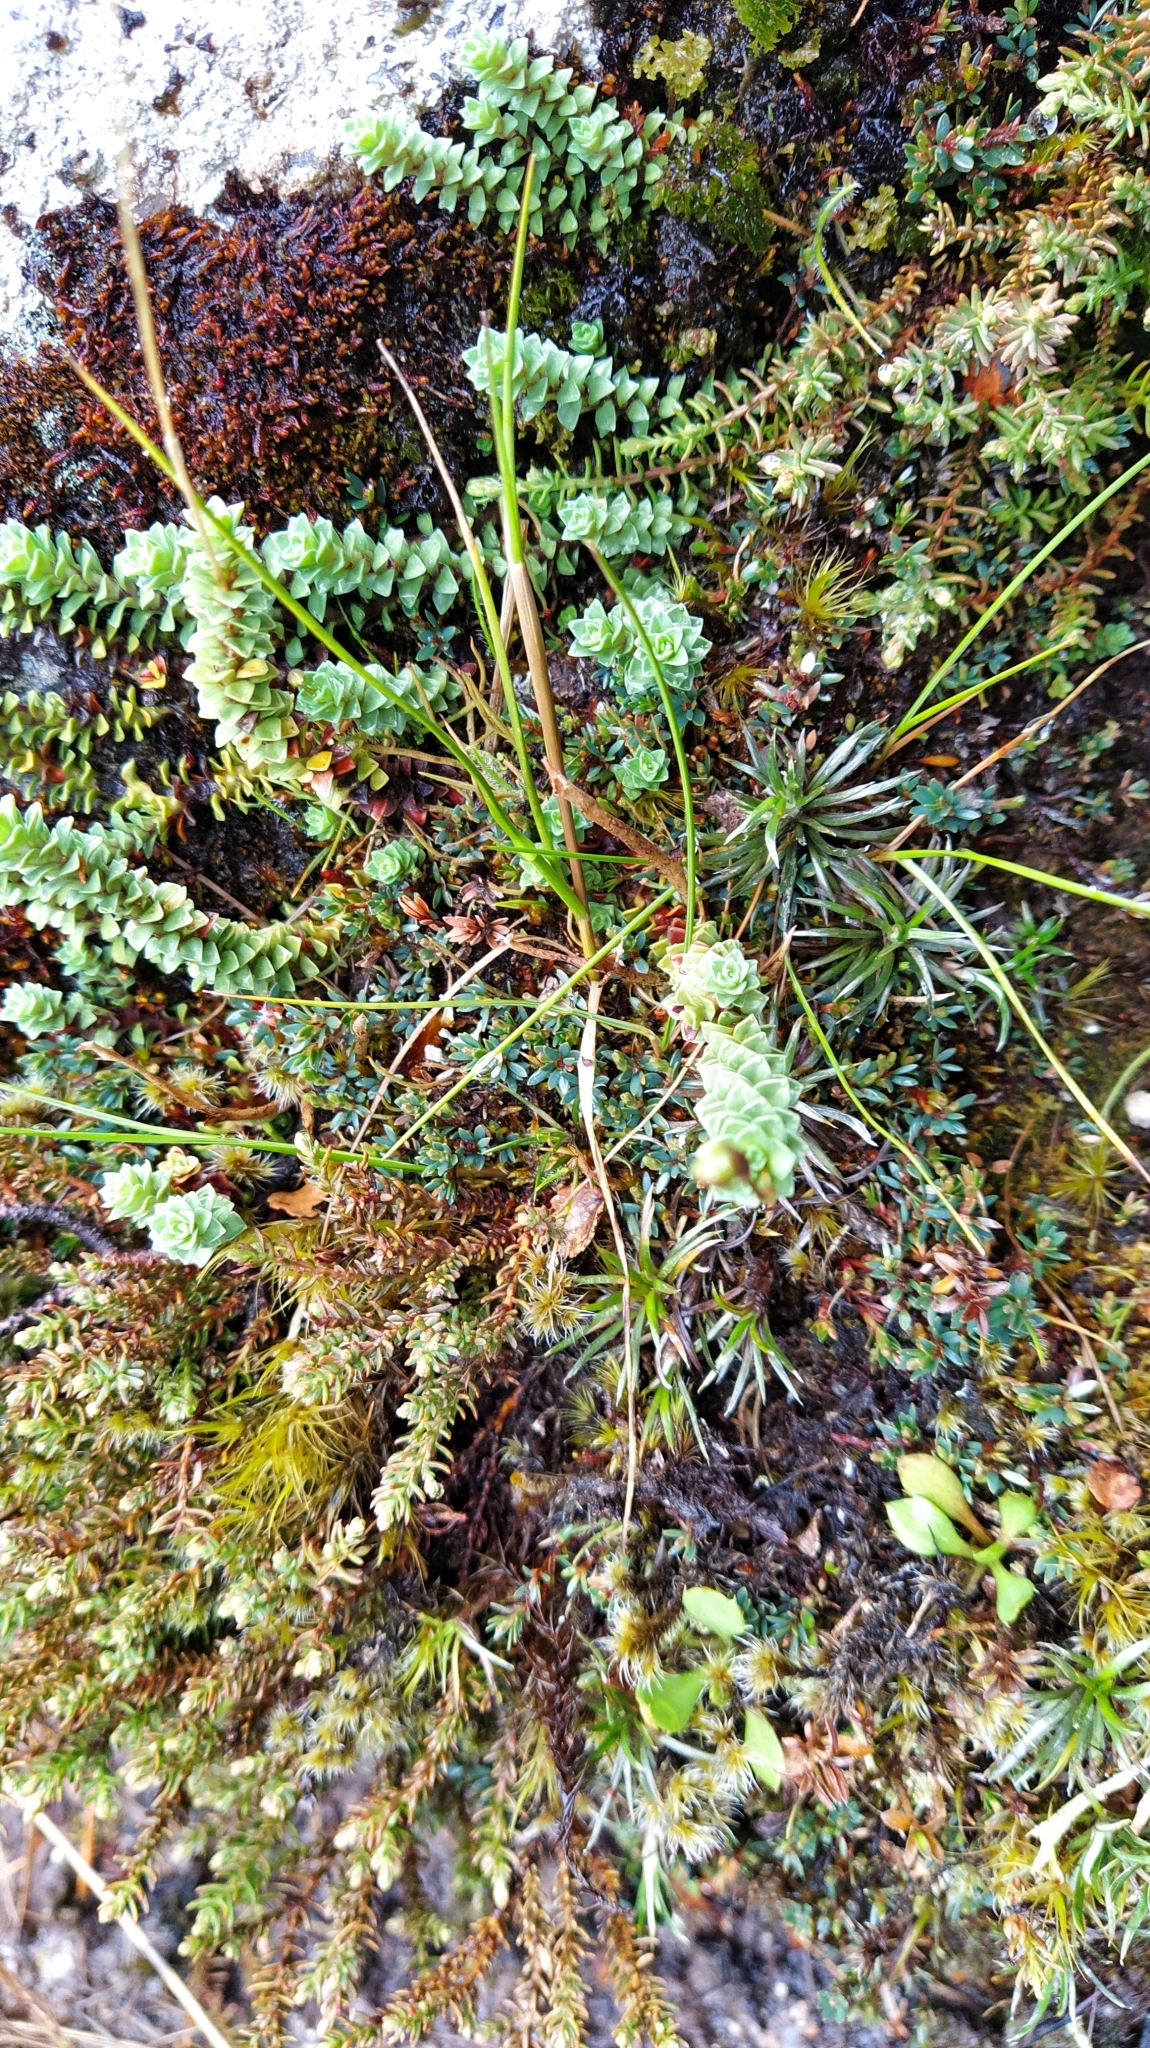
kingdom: Plantae
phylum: Tracheophyta
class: Magnoliopsida
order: Asterales
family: Stylidiaceae
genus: Forstera
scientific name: Forstera sedifolia
